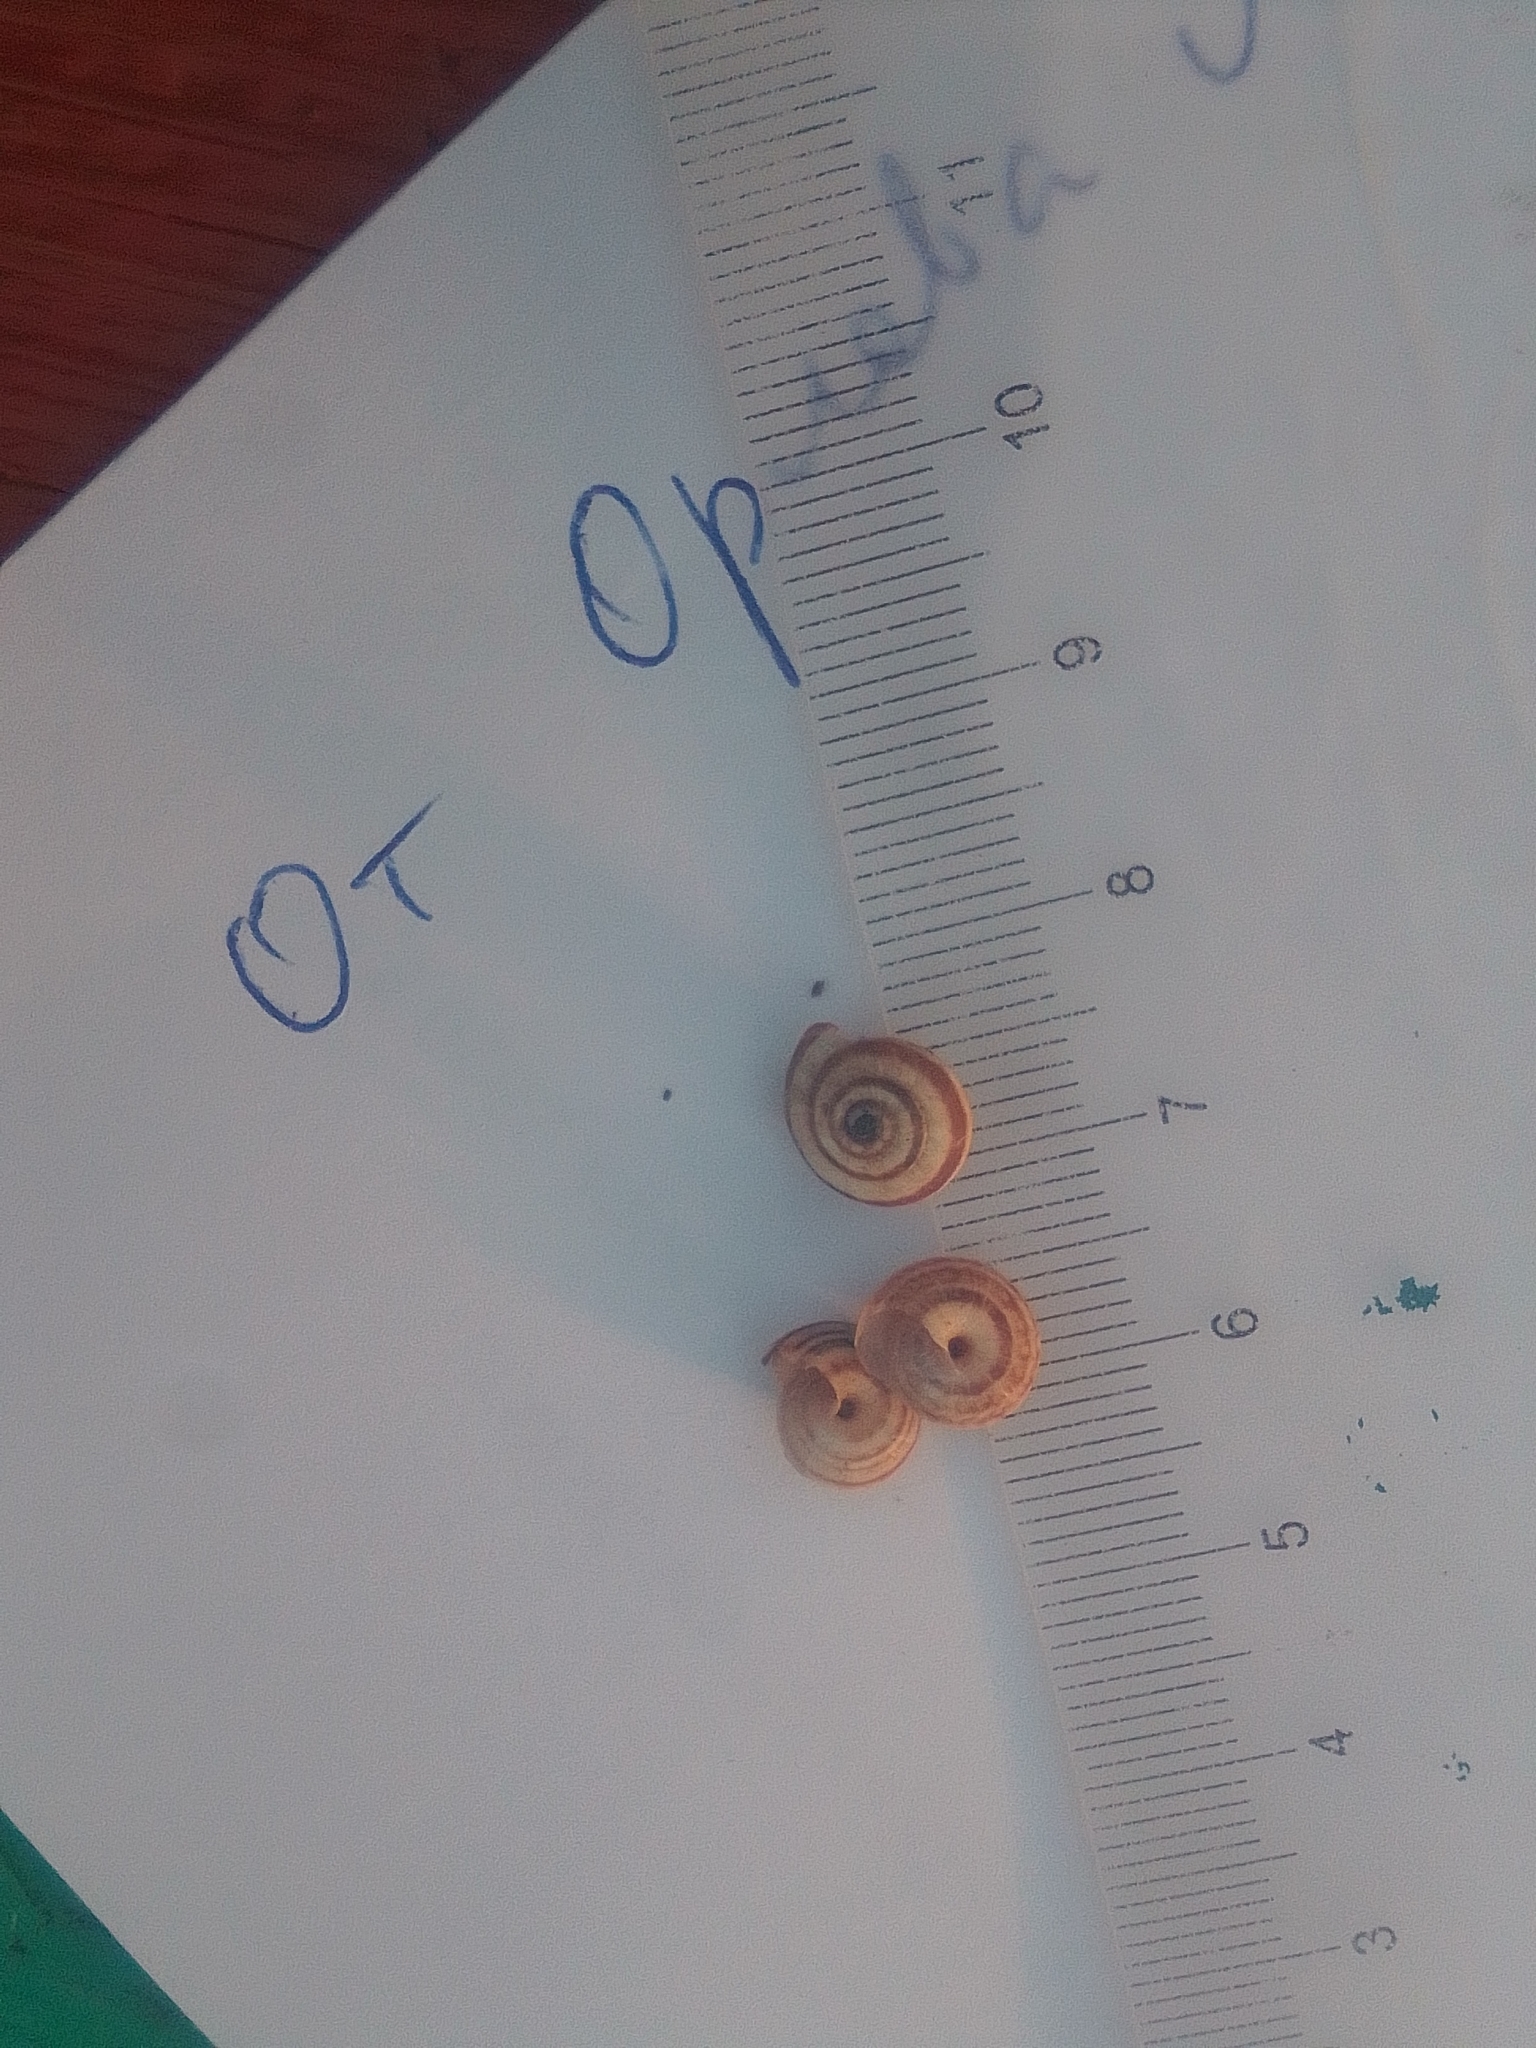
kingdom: Animalia
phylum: Mollusca
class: Gastropoda
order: Stylommatophora
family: Geomitridae
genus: Cernuella
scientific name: Cernuella virgata
